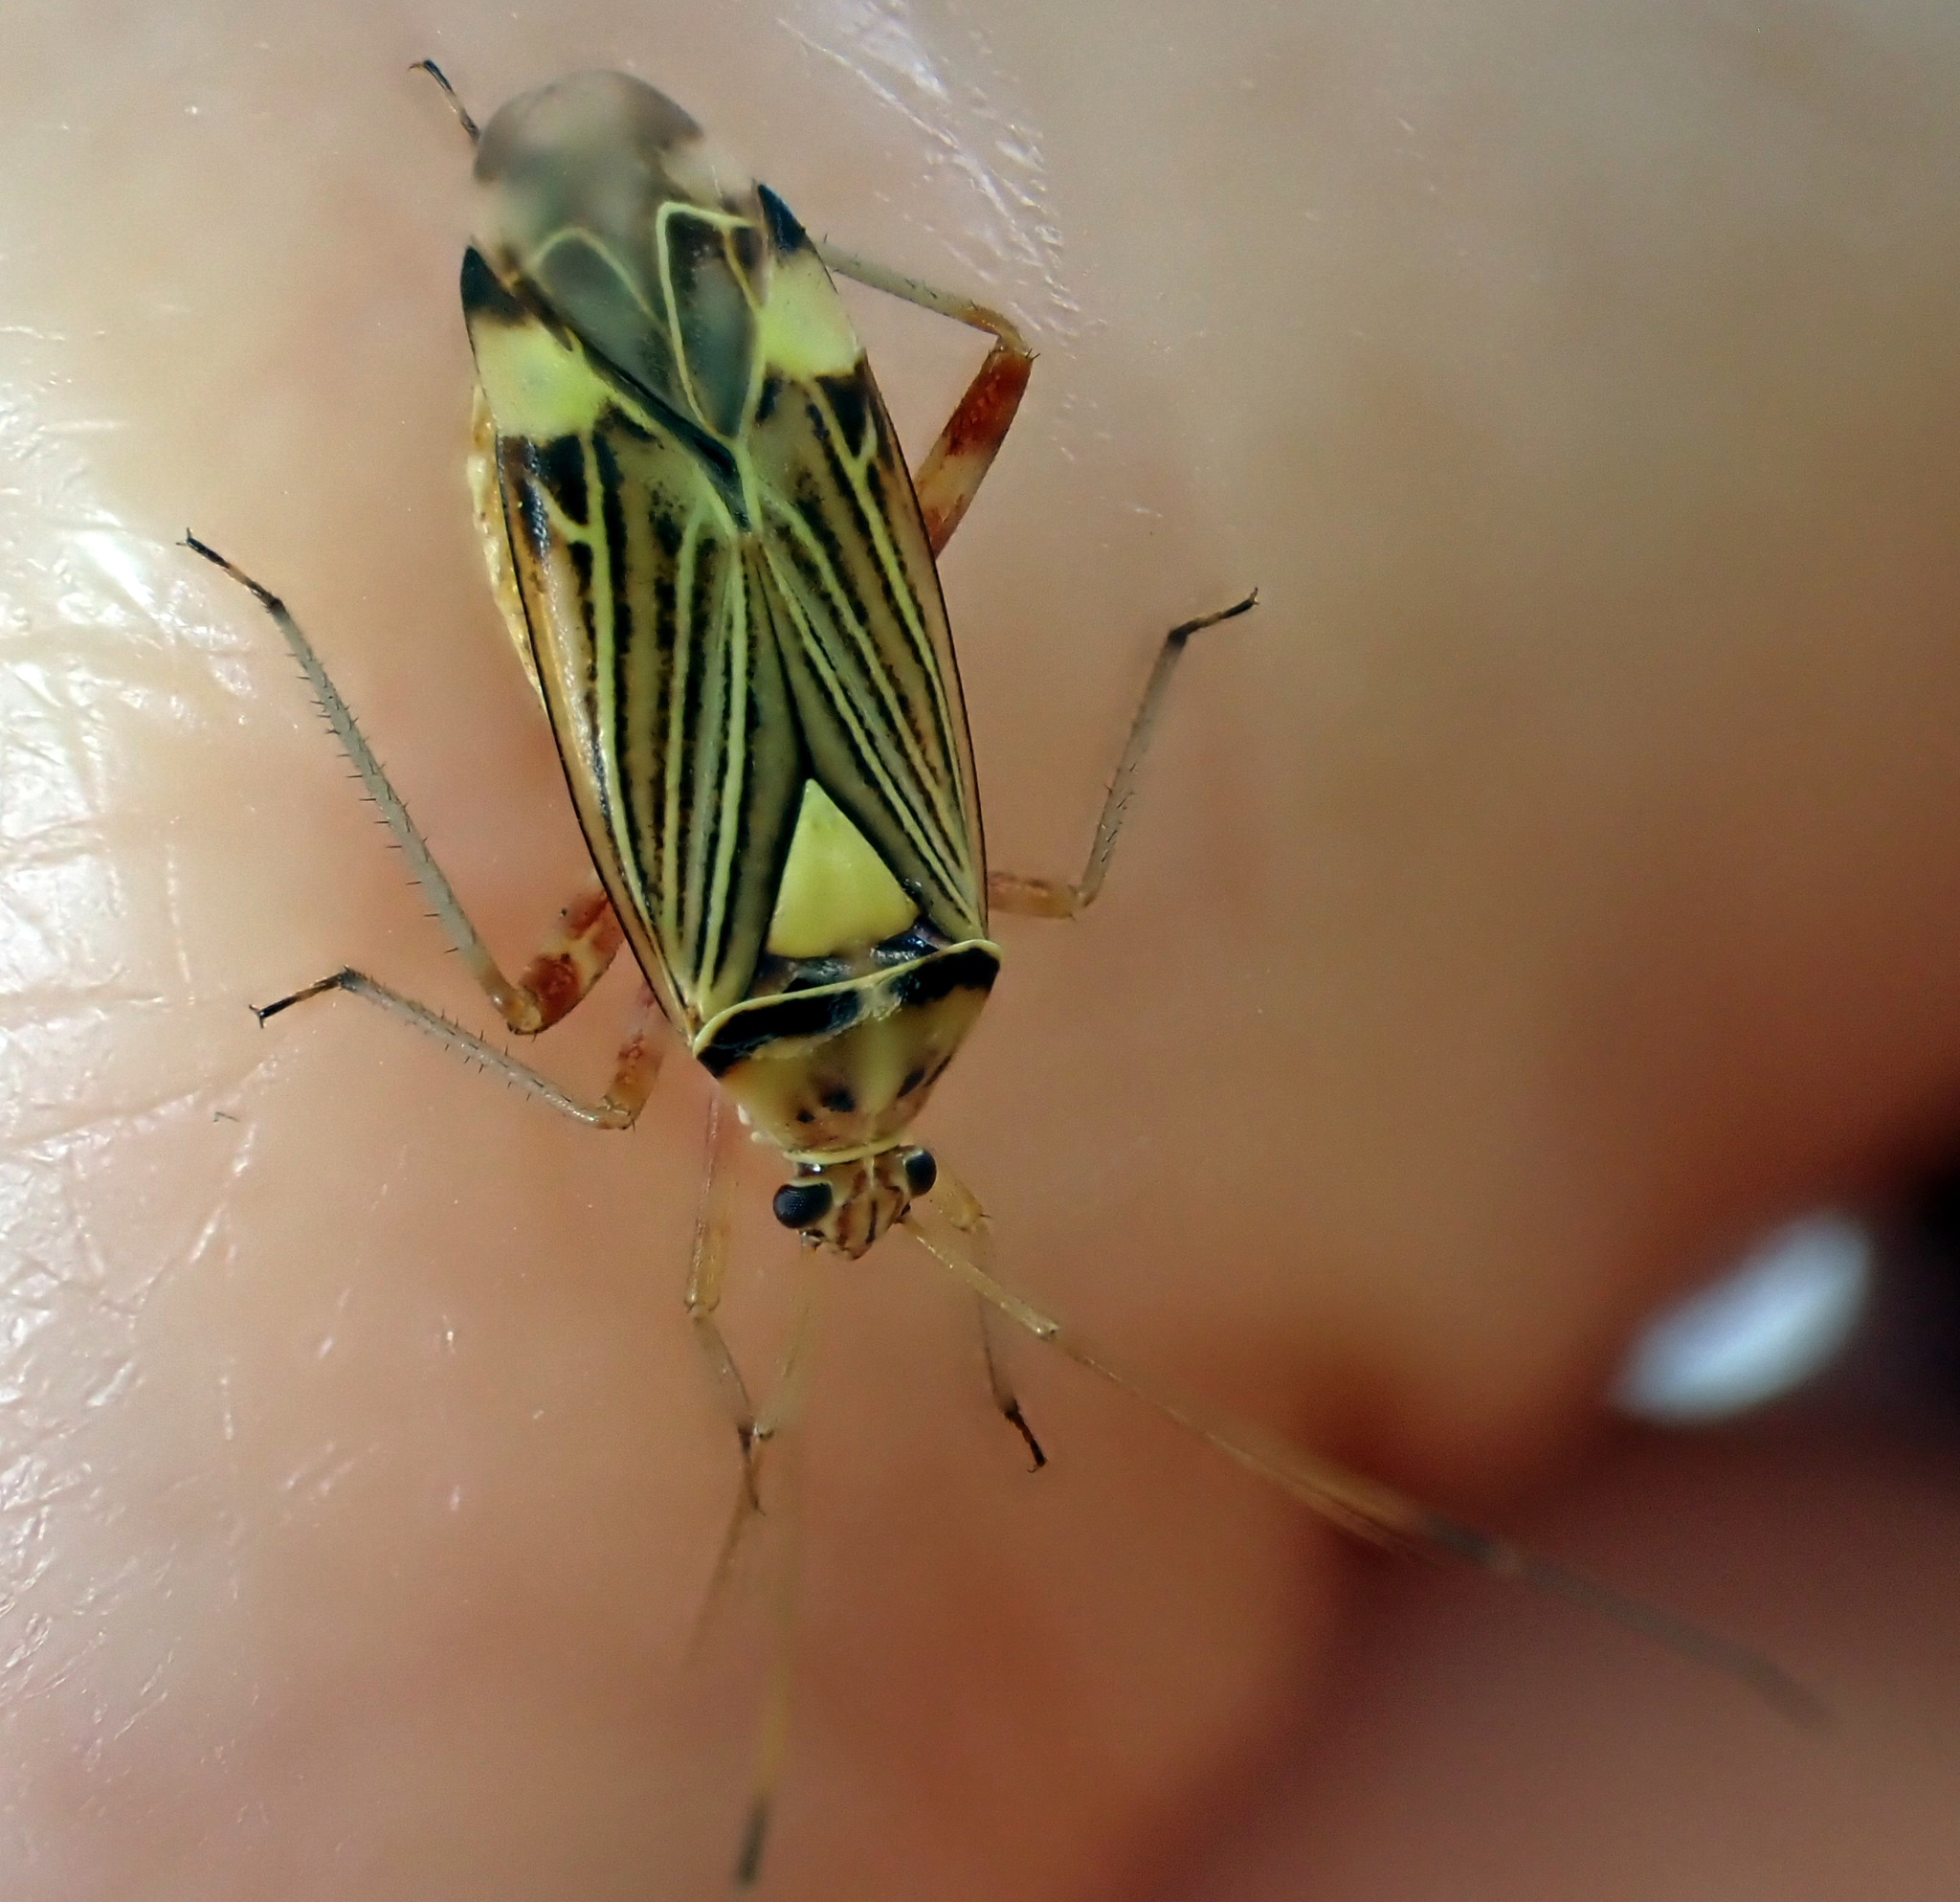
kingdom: Animalia
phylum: Arthropoda
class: Insecta
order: Hemiptera
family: Miridae
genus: Rhabdomiris
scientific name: Rhabdomiris striatellus
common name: Plant bug
